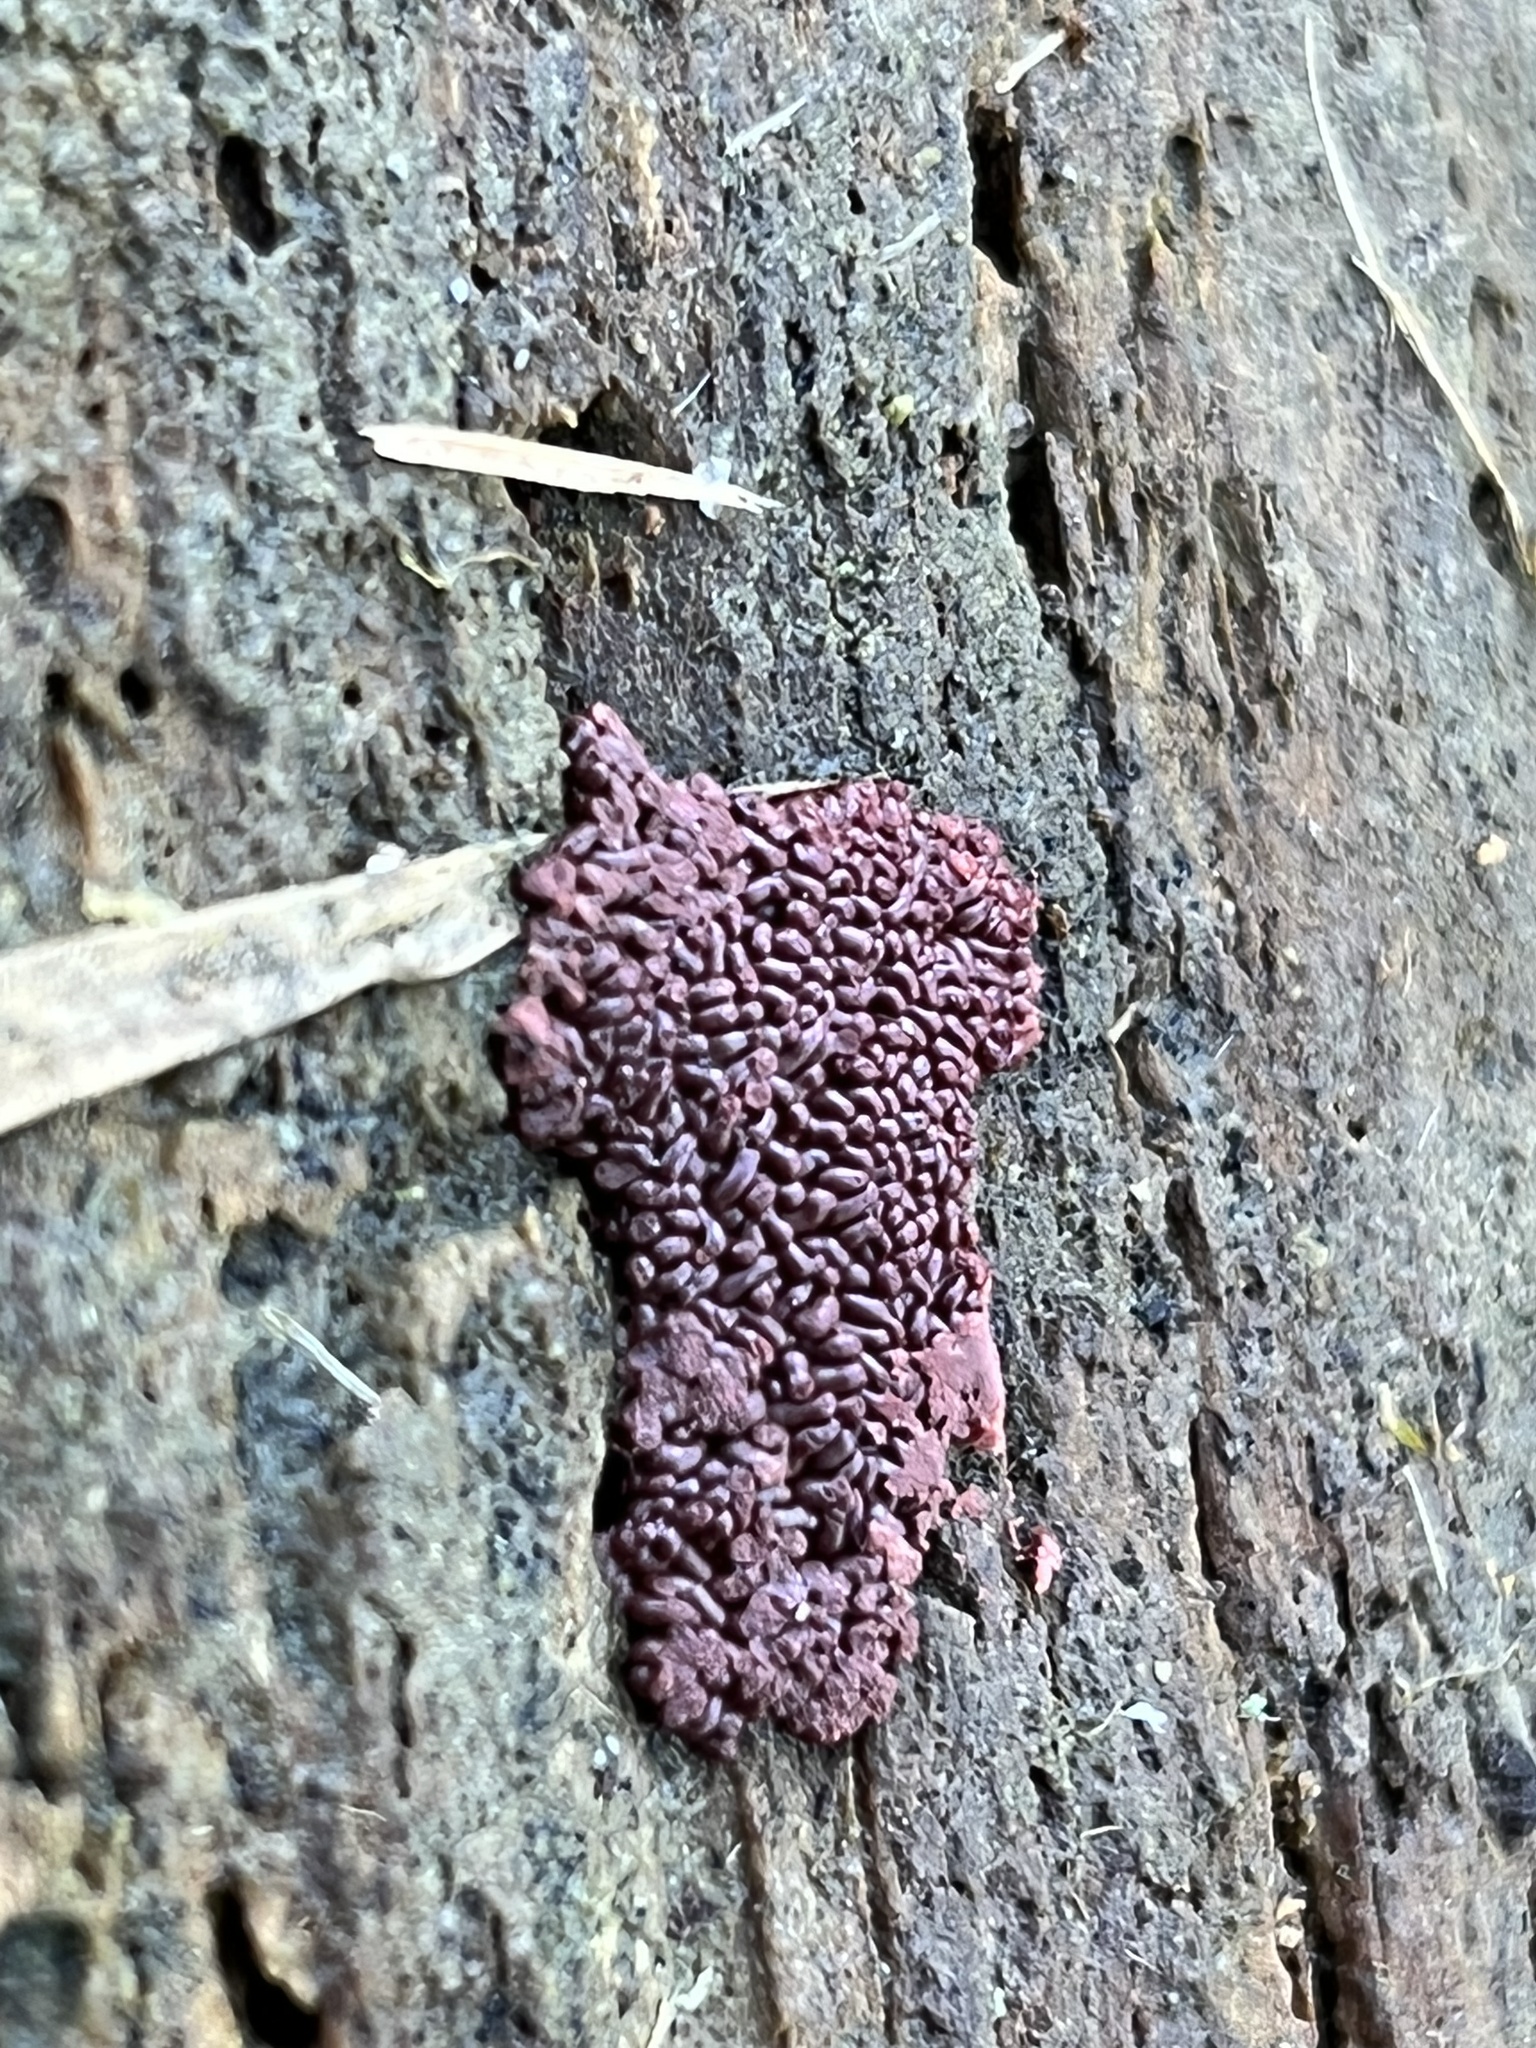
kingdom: Protozoa
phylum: Mycetozoa
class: Myxomycetes
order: Trichiales
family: Arcyriaceae
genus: Arcyria
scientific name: Arcyria stipata
